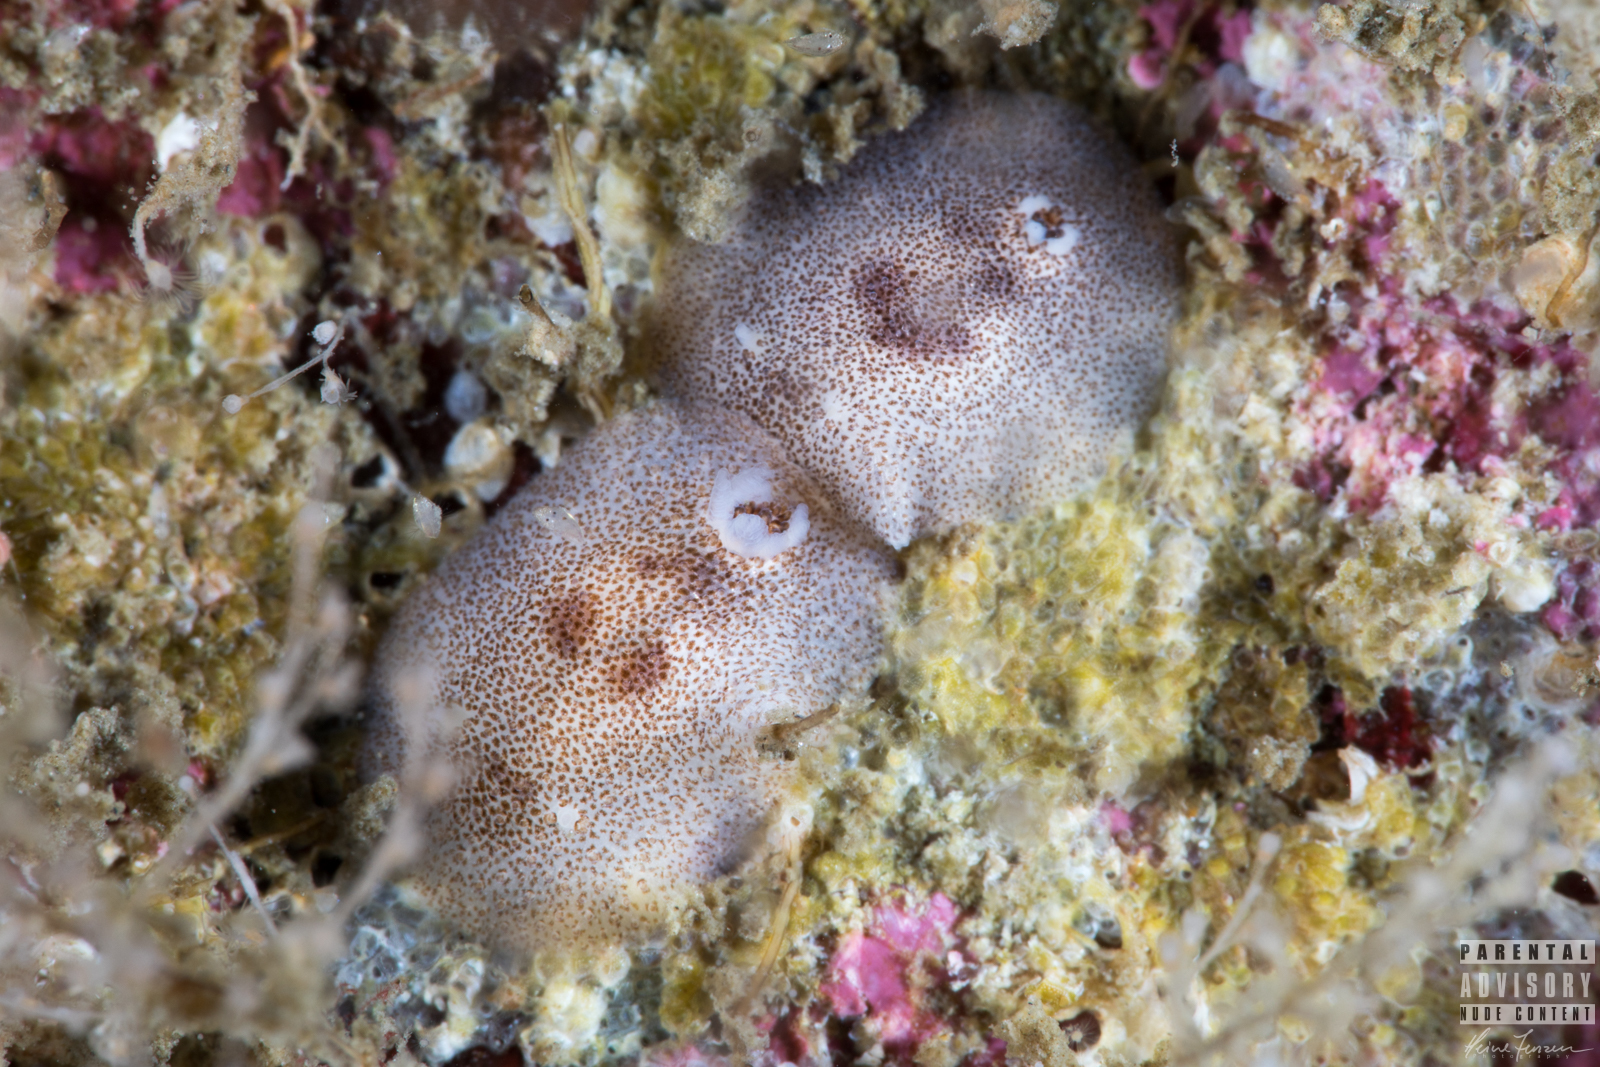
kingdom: Animalia
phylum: Mollusca
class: Gastropoda
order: Nudibranchia
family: Onchidorididae
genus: Atalodoris
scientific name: Atalodoris pusilla
